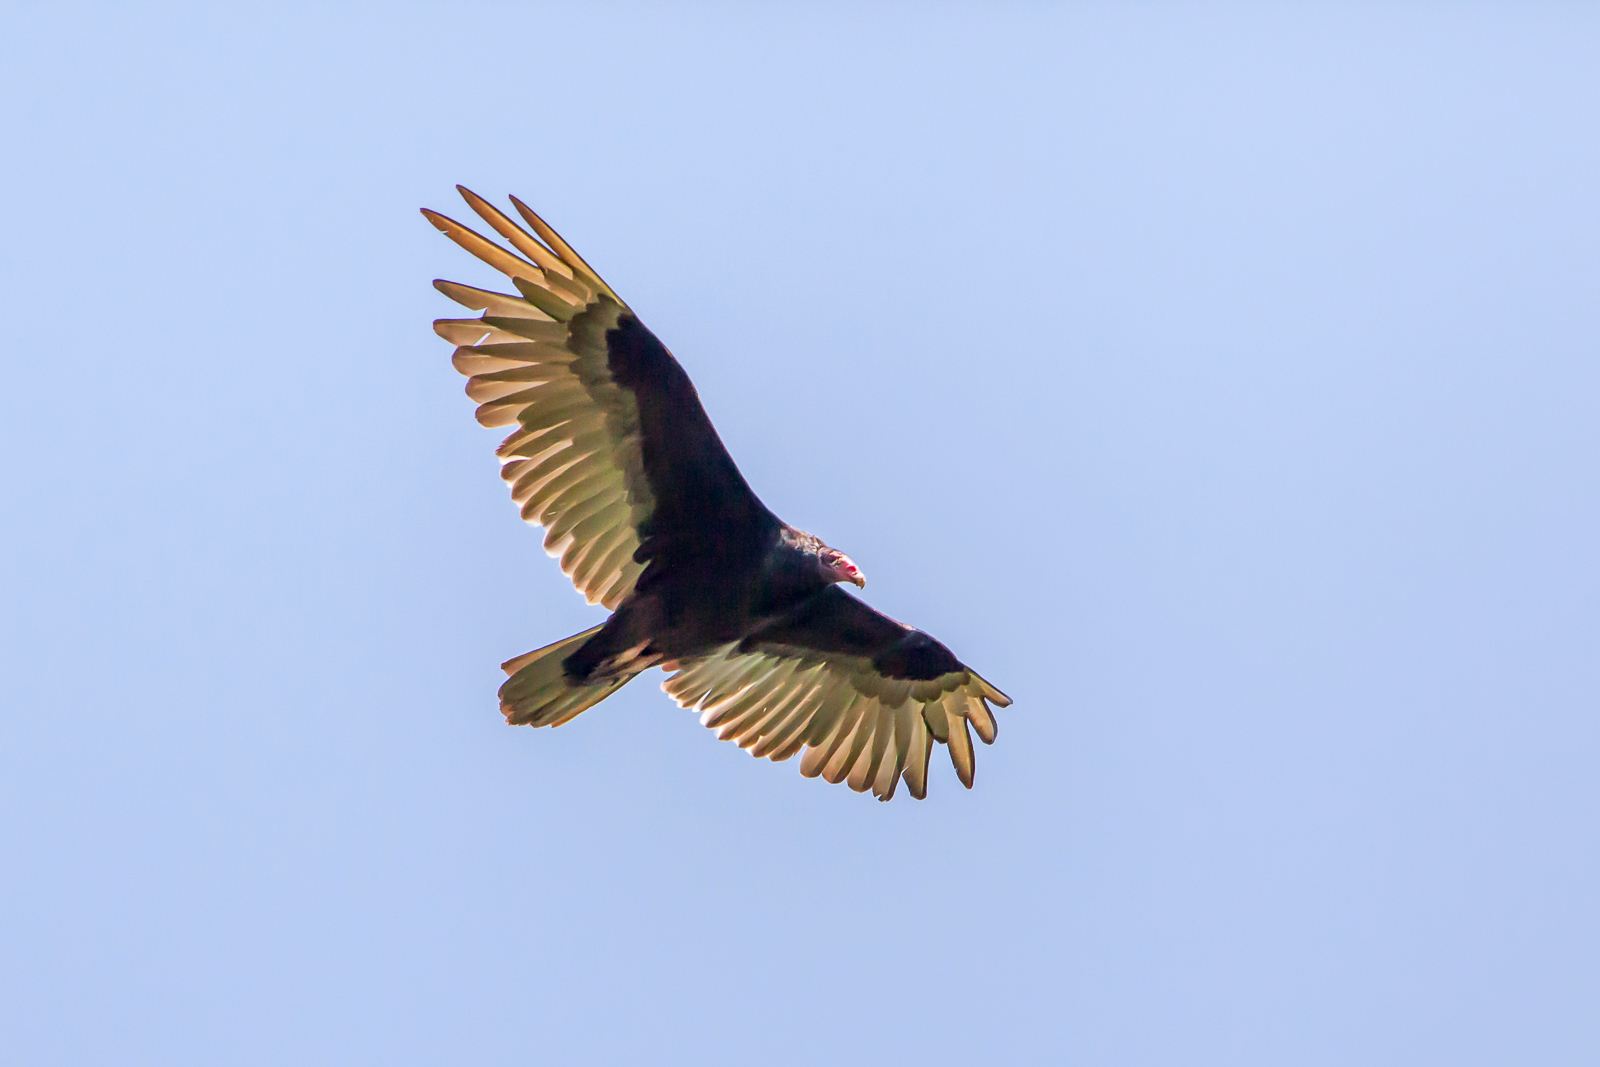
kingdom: Animalia
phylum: Chordata
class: Aves
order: Accipitriformes
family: Cathartidae
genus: Cathartes
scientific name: Cathartes aura
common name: Turkey vulture
